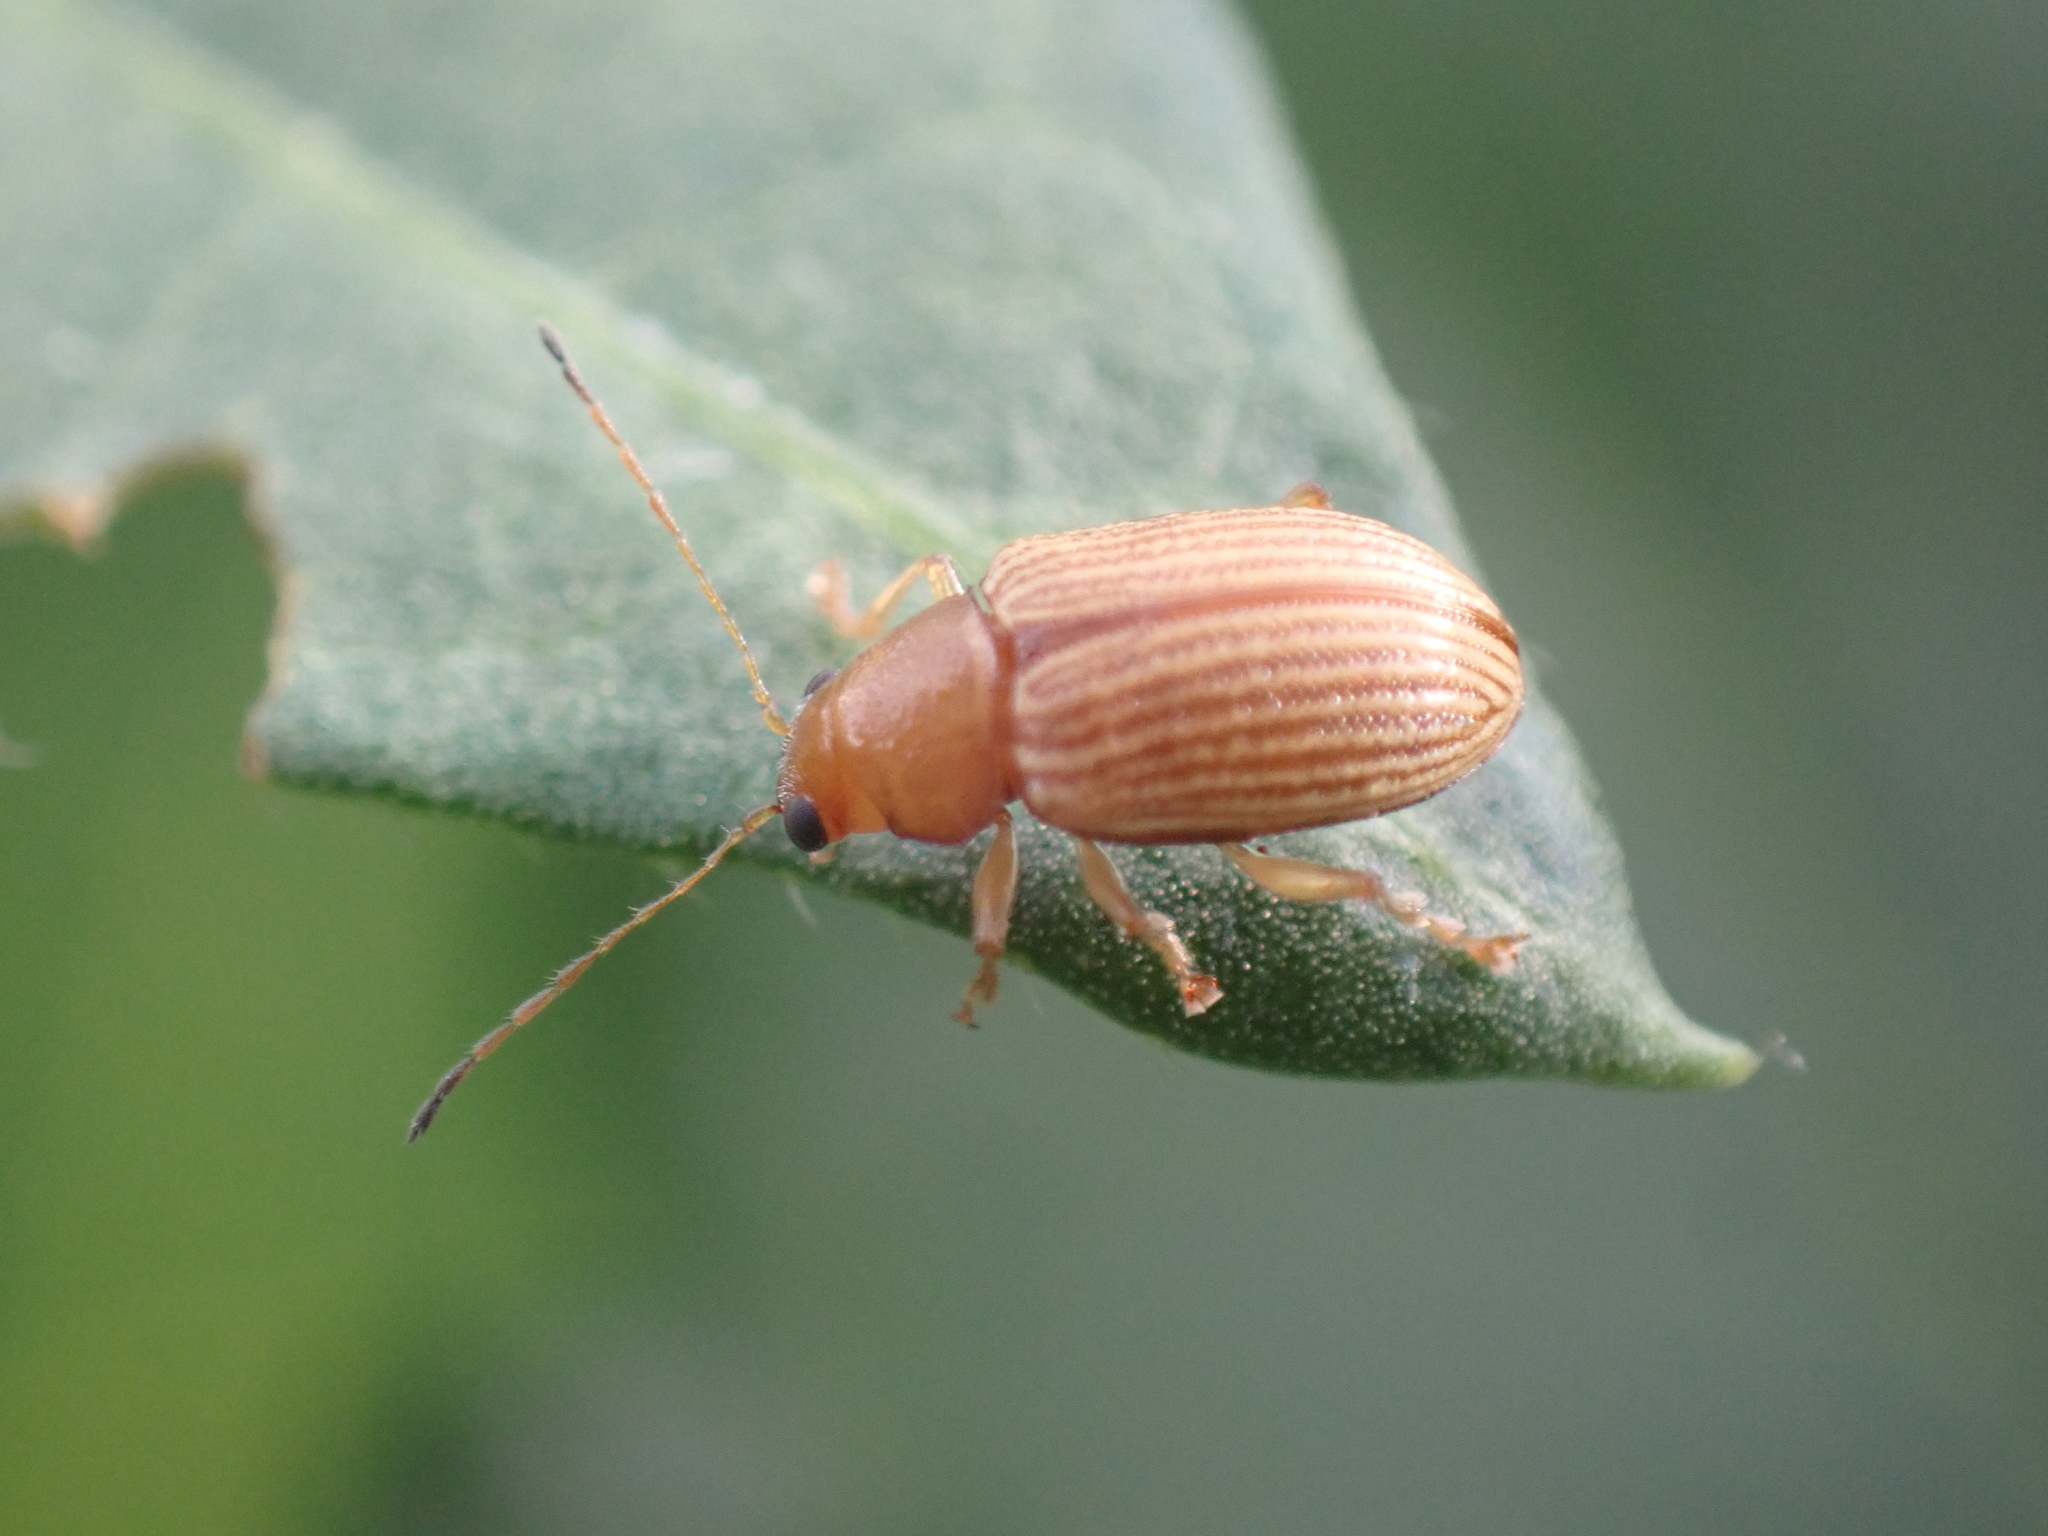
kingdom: Animalia
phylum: Arthropoda
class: Insecta
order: Coleoptera
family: Chrysomelidae
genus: Colaspis
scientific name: Colaspis brunnea
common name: Grape colaspis
